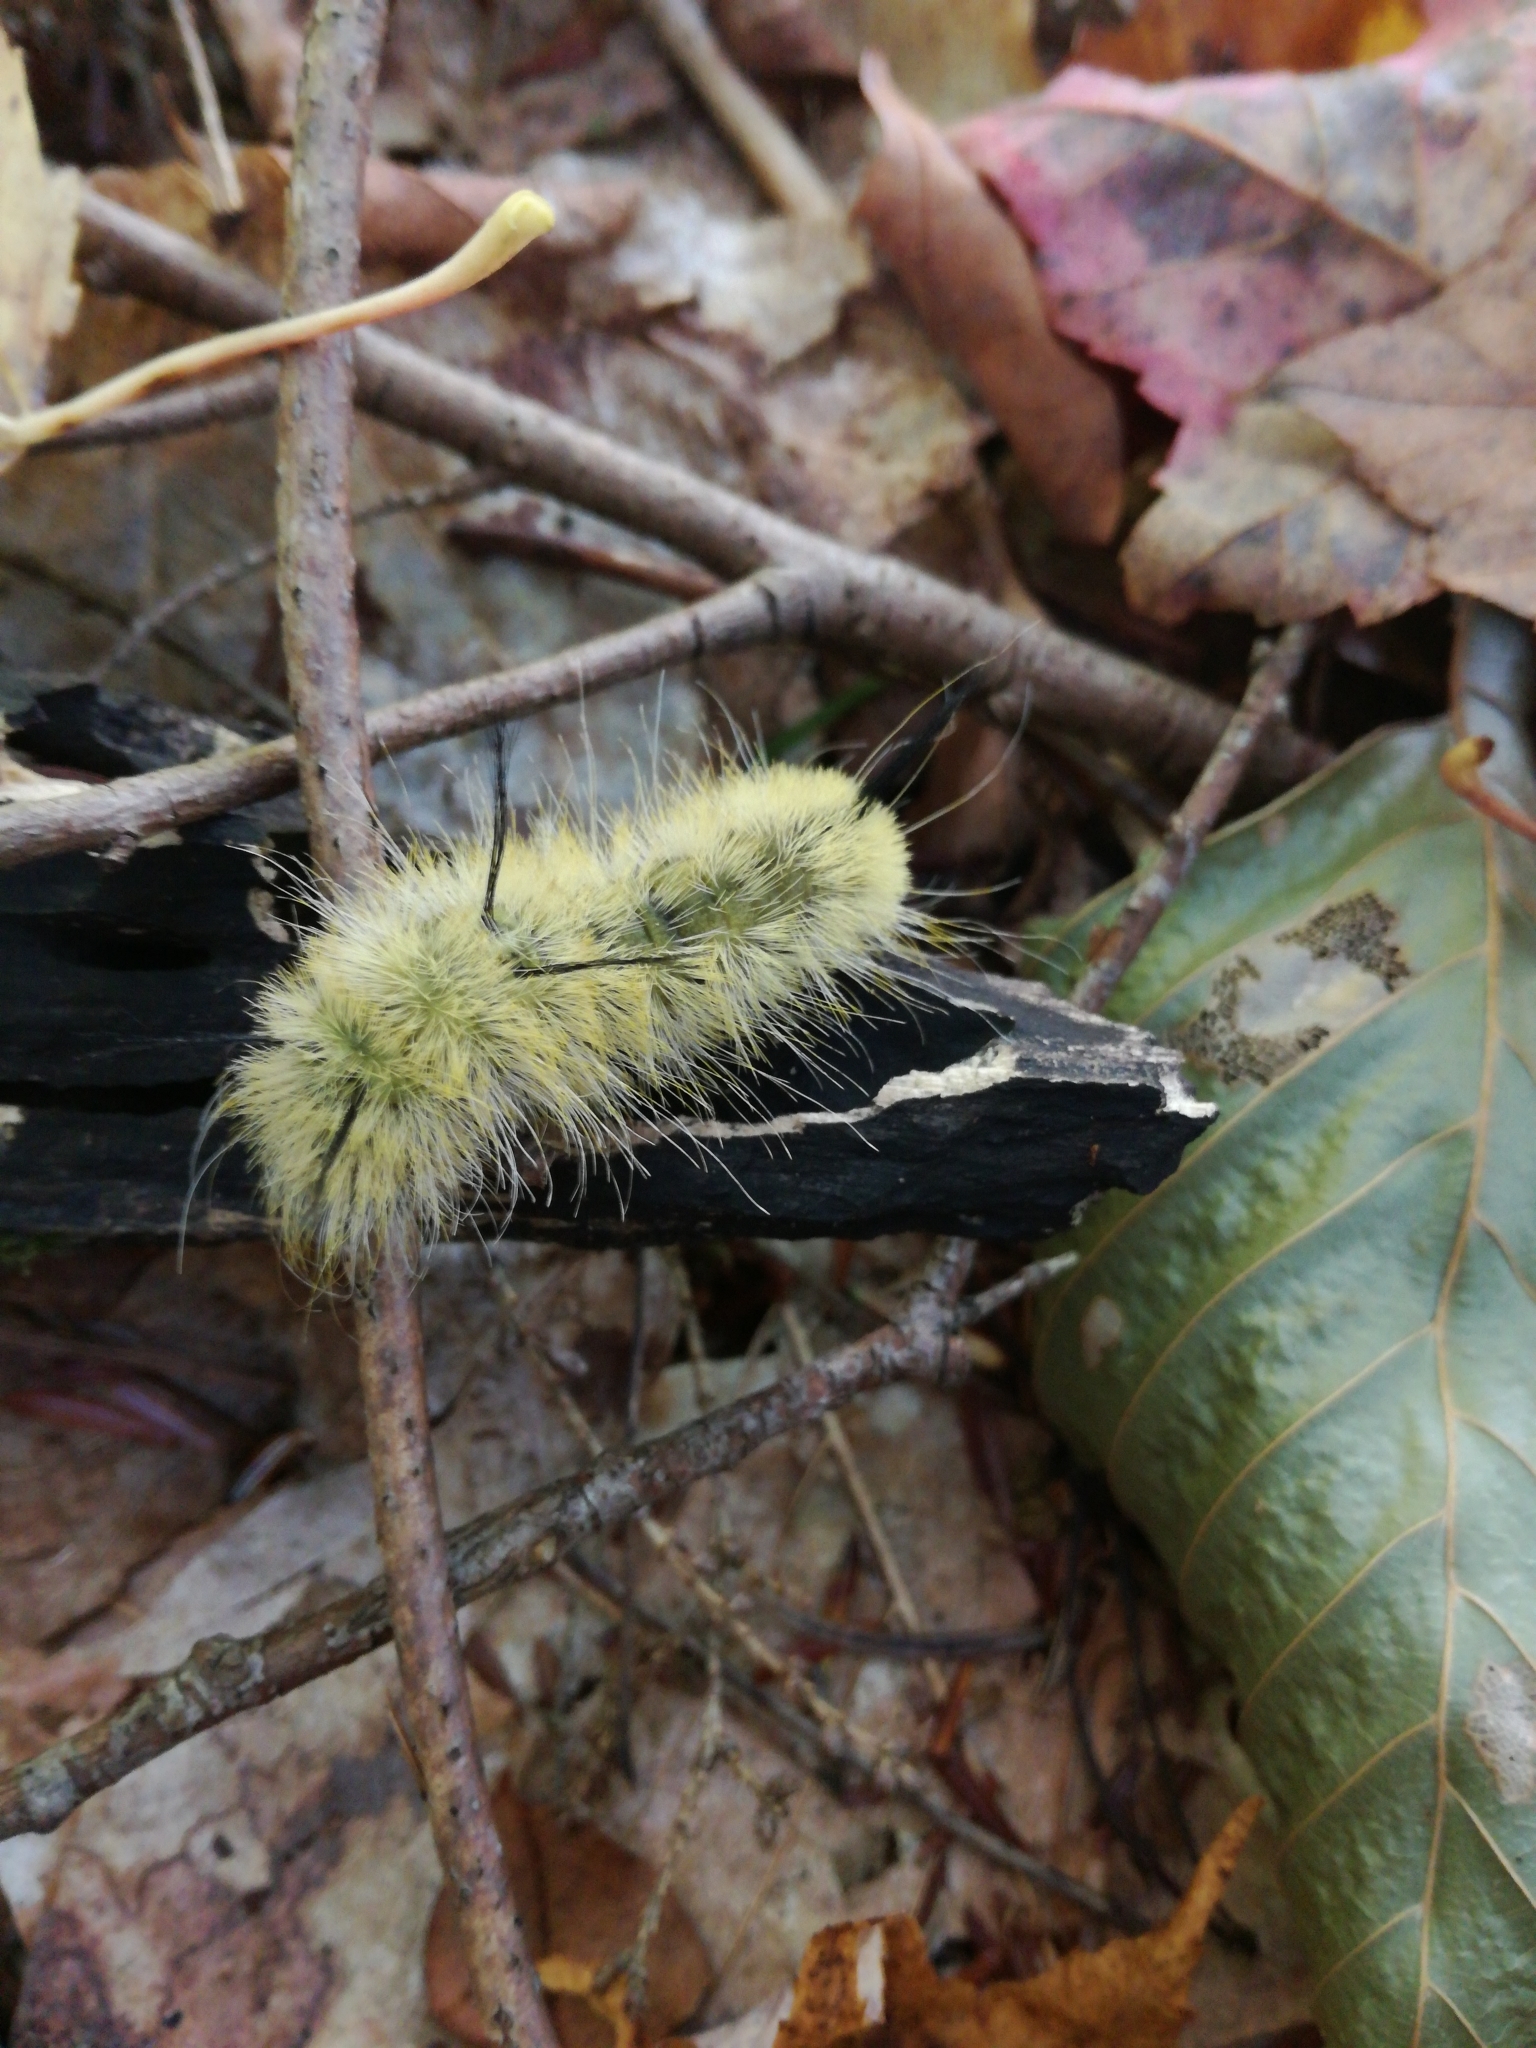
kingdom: Animalia
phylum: Arthropoda
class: Insecta
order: Lepidoptera
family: Noctuidae
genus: Acronicta
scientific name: Acronicta americana
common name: American dagger
